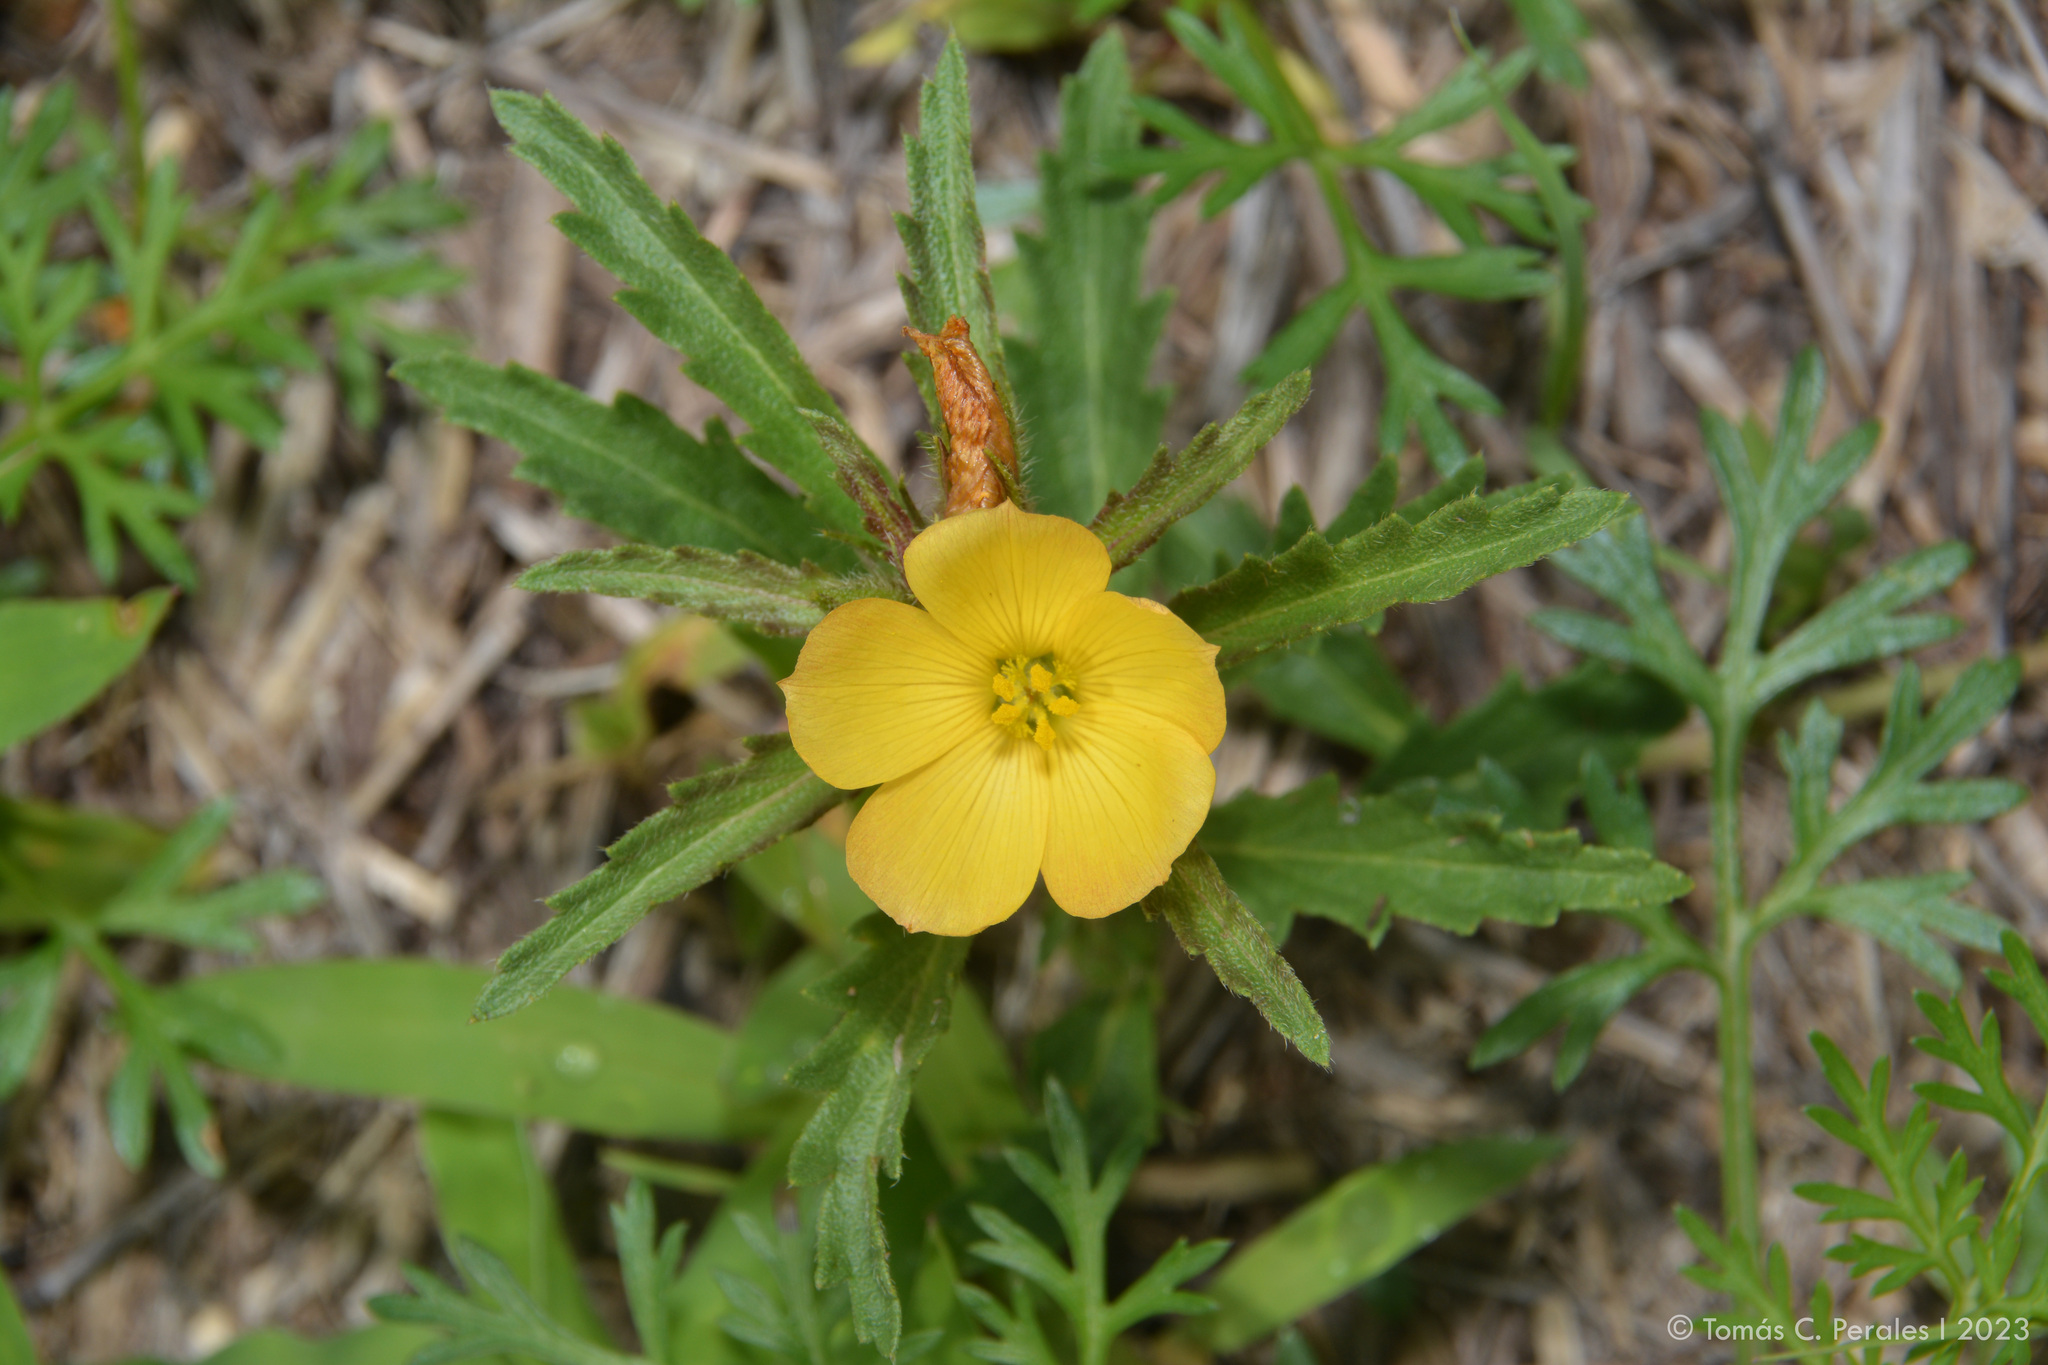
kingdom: Plantae
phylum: Tracheophyta
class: Magnoliopsida
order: Malpighiales
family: Turneraceae
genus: Turnera
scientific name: Turnera sidoides
